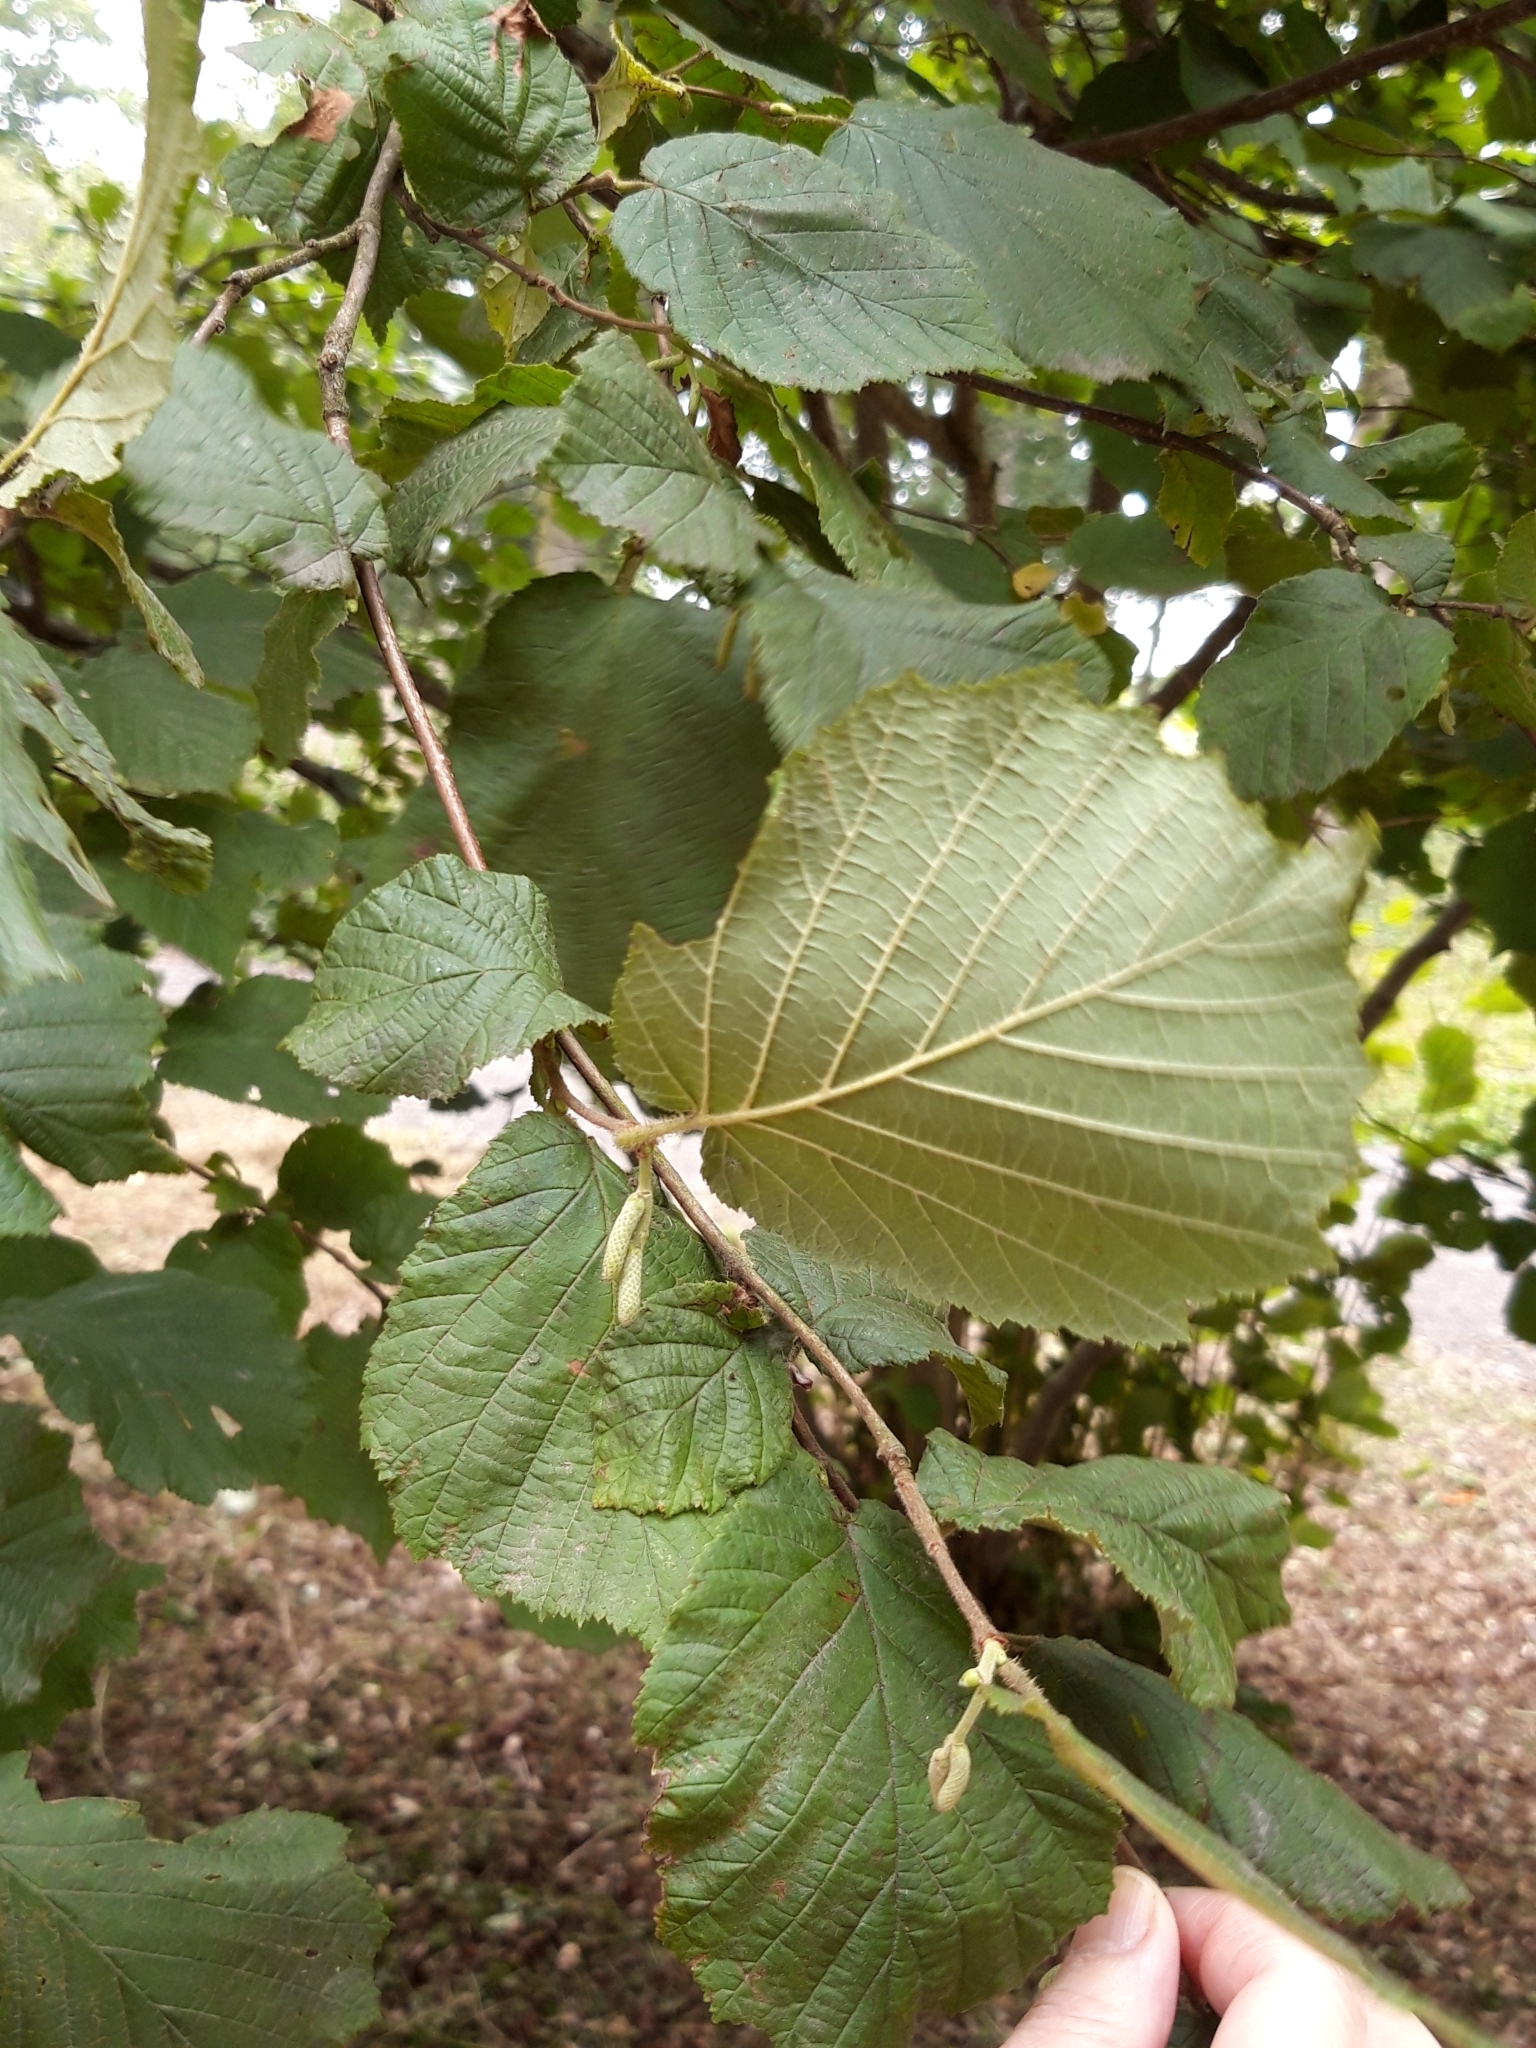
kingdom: Plantae
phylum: Tracheophyta
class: Magnoliopsida
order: Fagales
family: Betulaceae
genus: Corylus
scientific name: Corylus avellana
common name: European hazel
